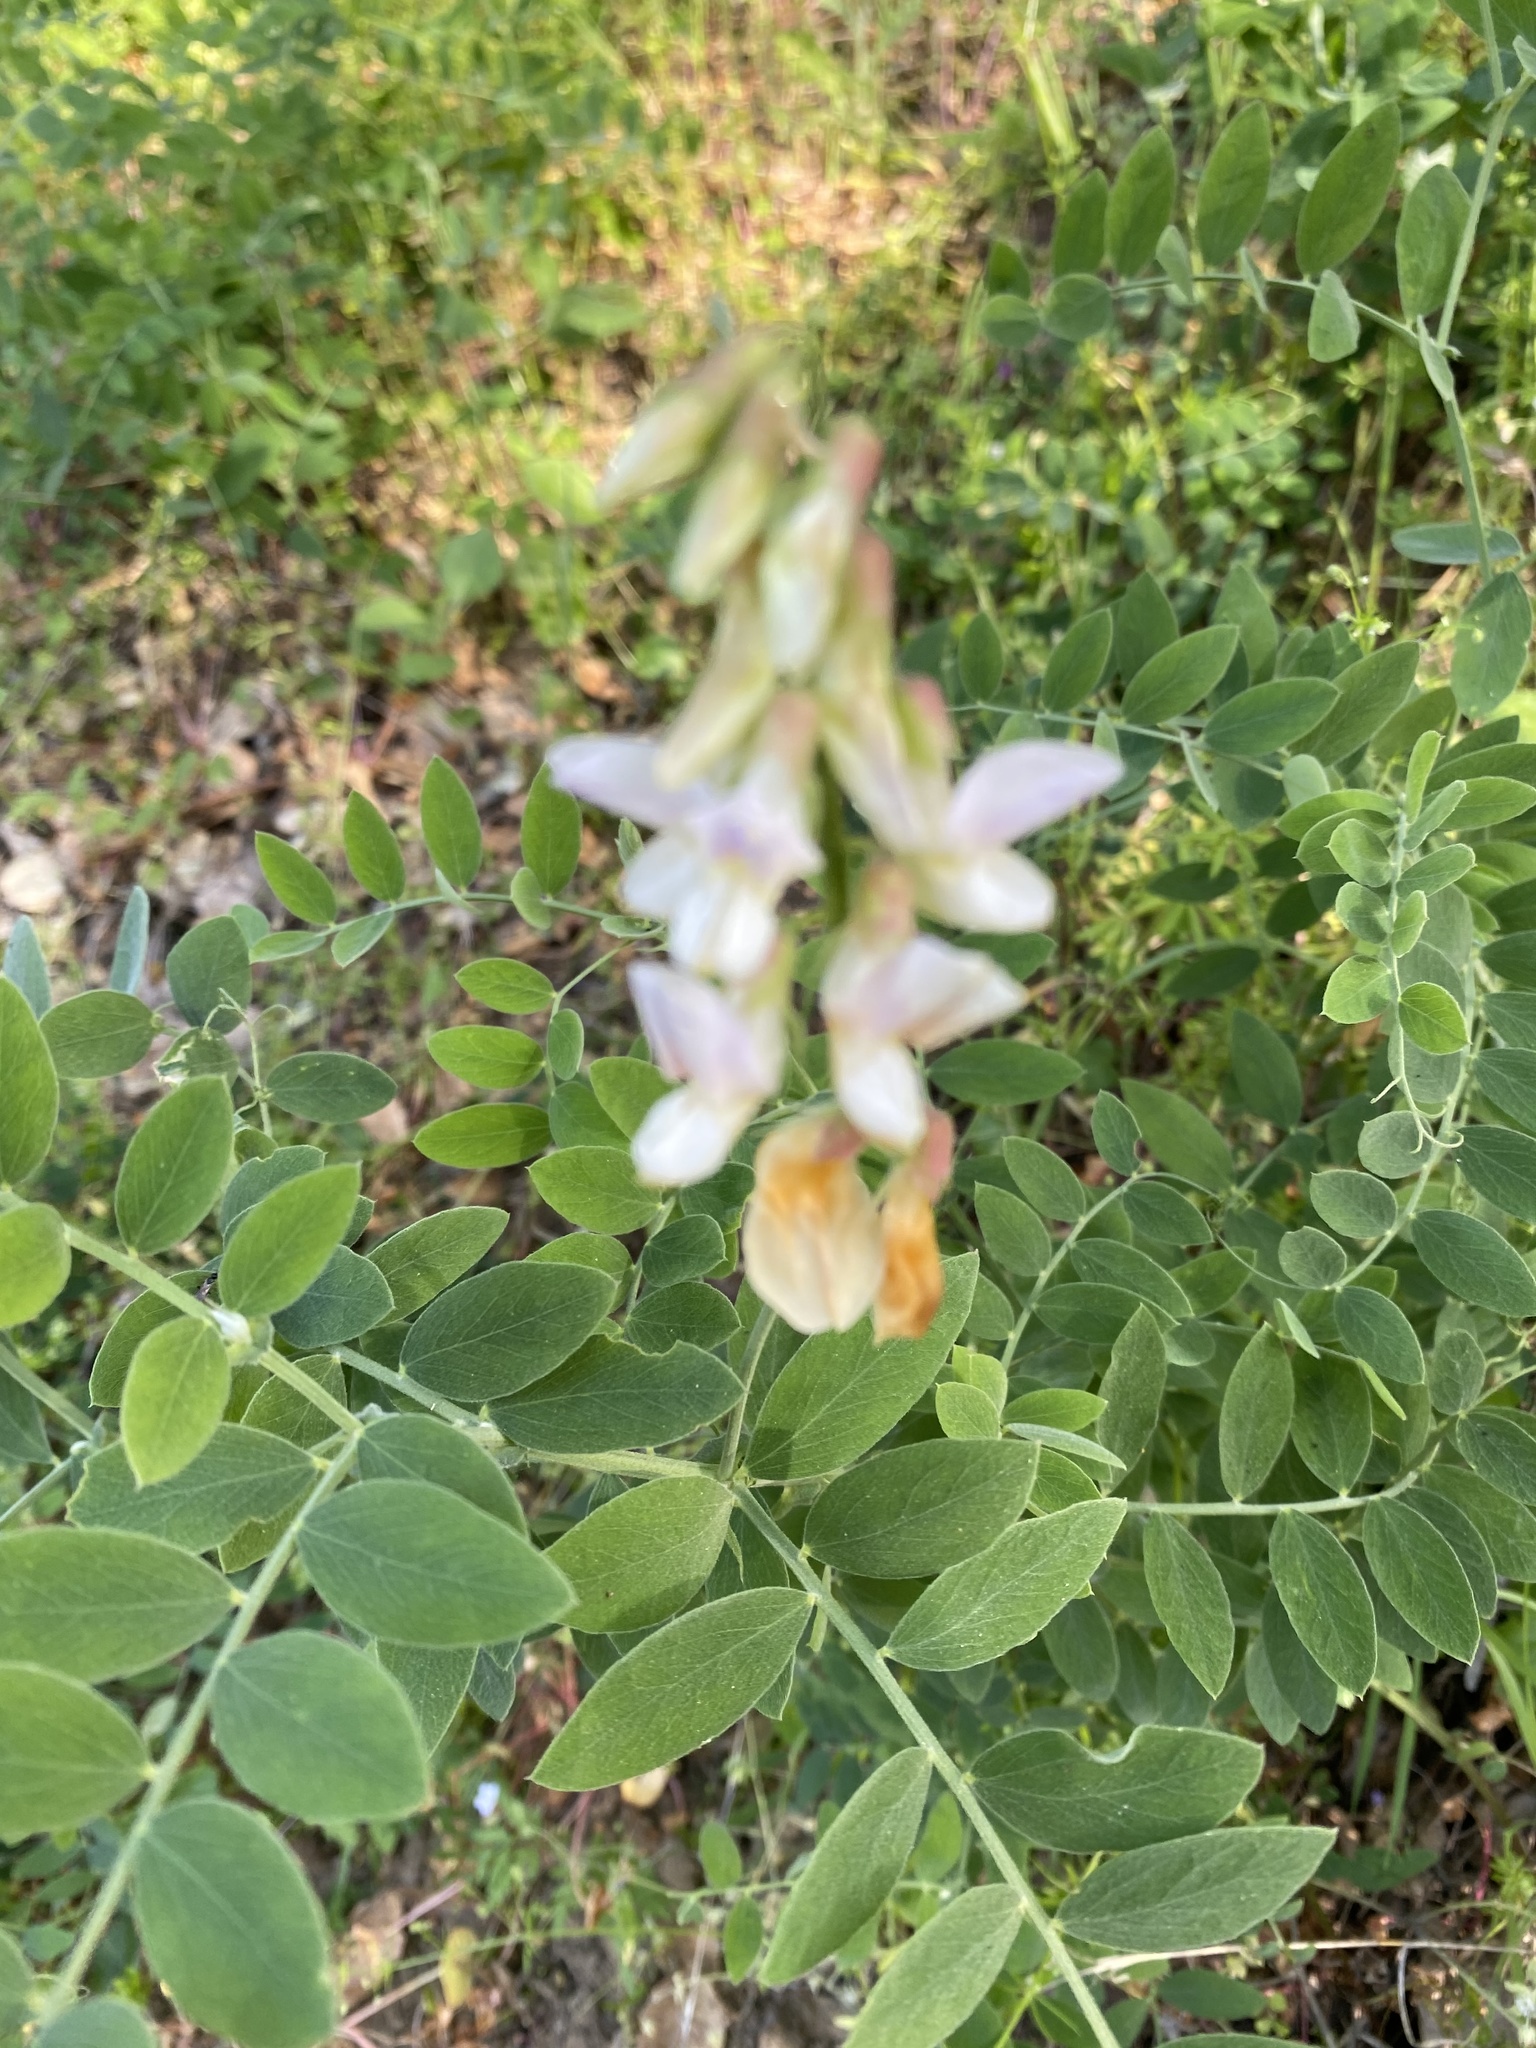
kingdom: Plantae
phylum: Tracheophyta
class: Magnoliopsida
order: Fabales
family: Fabaceae
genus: Lathyrus
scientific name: Lathyrus vestitus
